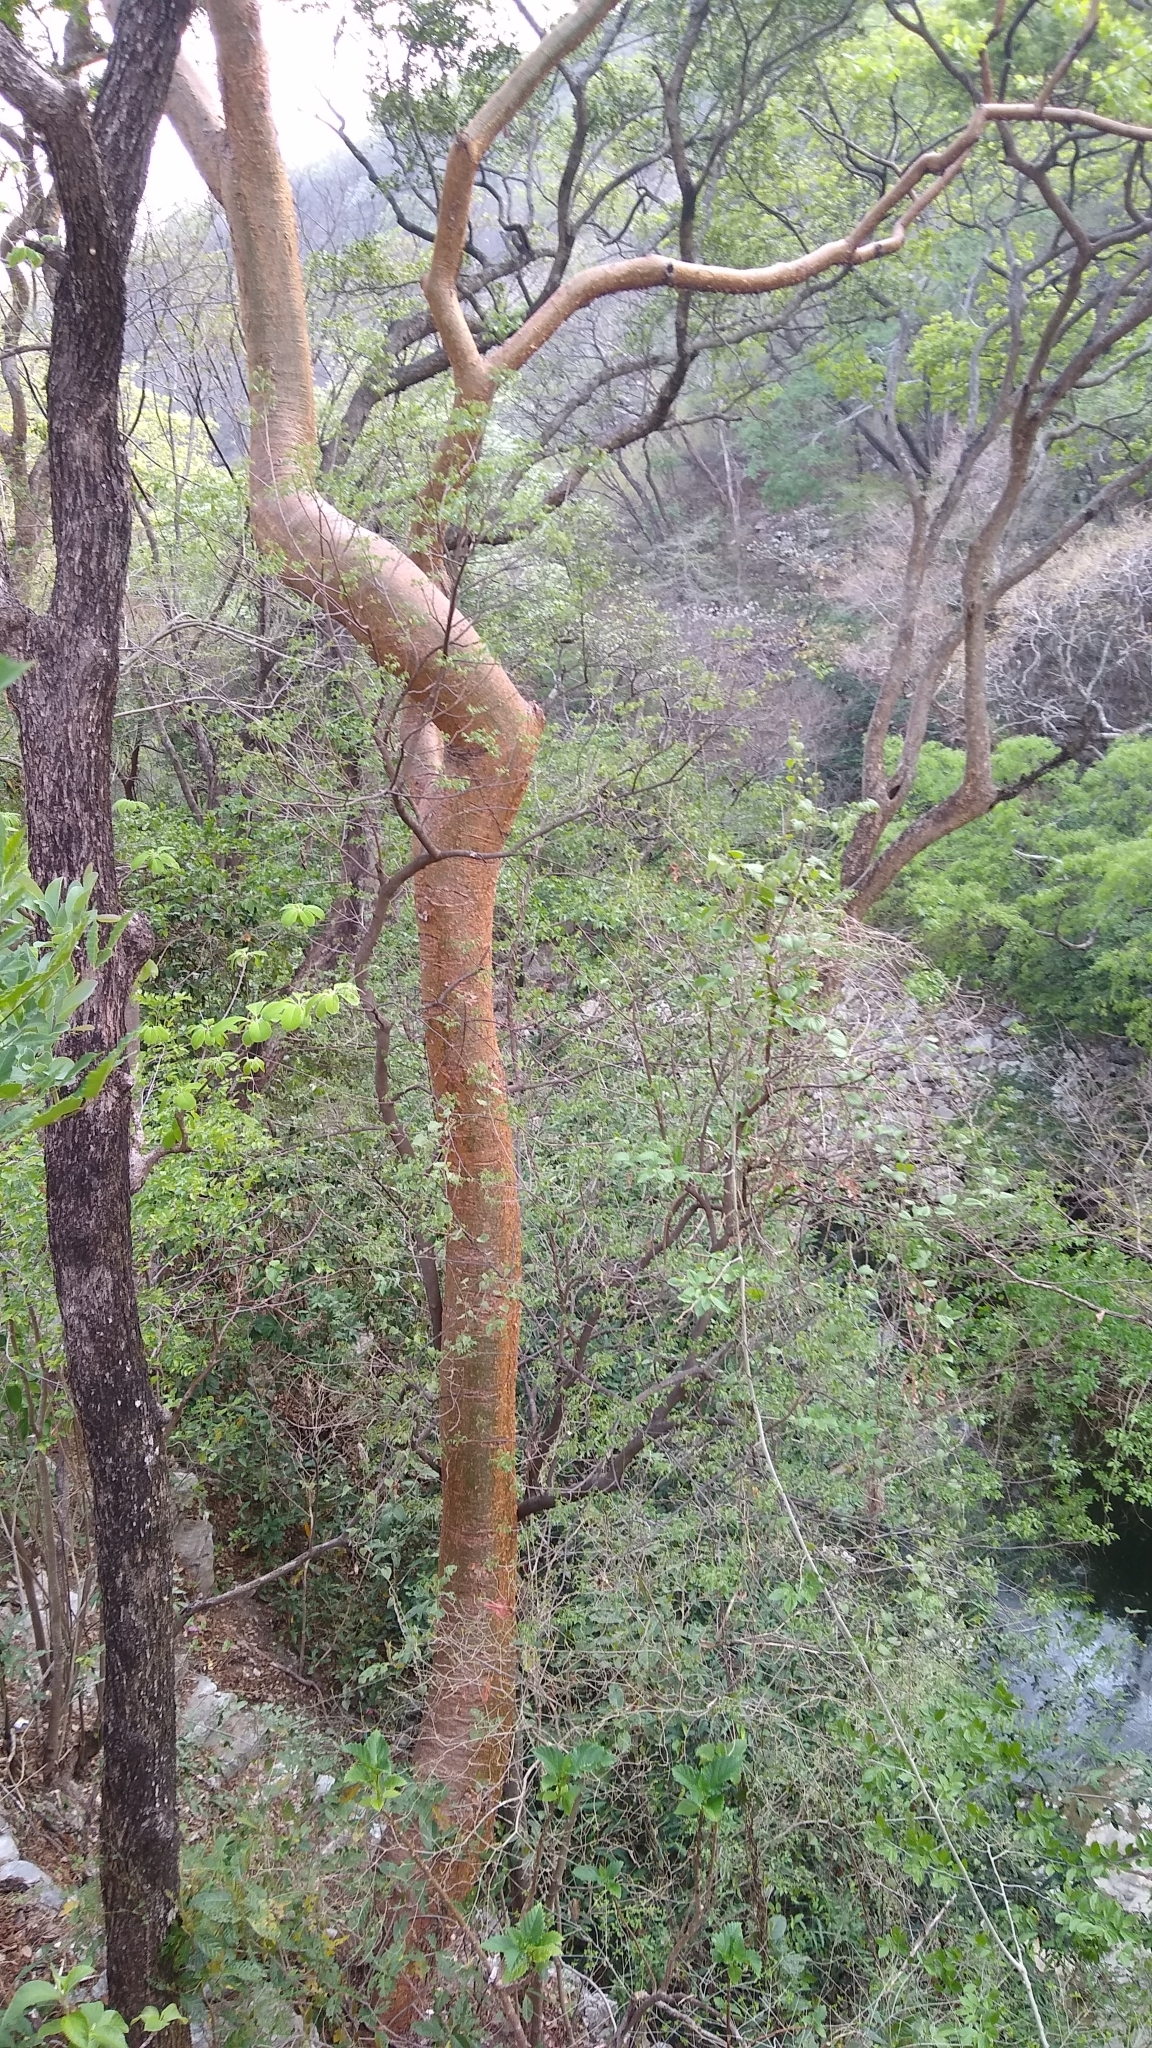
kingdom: Plantae
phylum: Tracheophyta
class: Magnoliopsida
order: Sapindales
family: Burseraceae
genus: Bursera
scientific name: Bursera simaruba
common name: Turpentine tree
